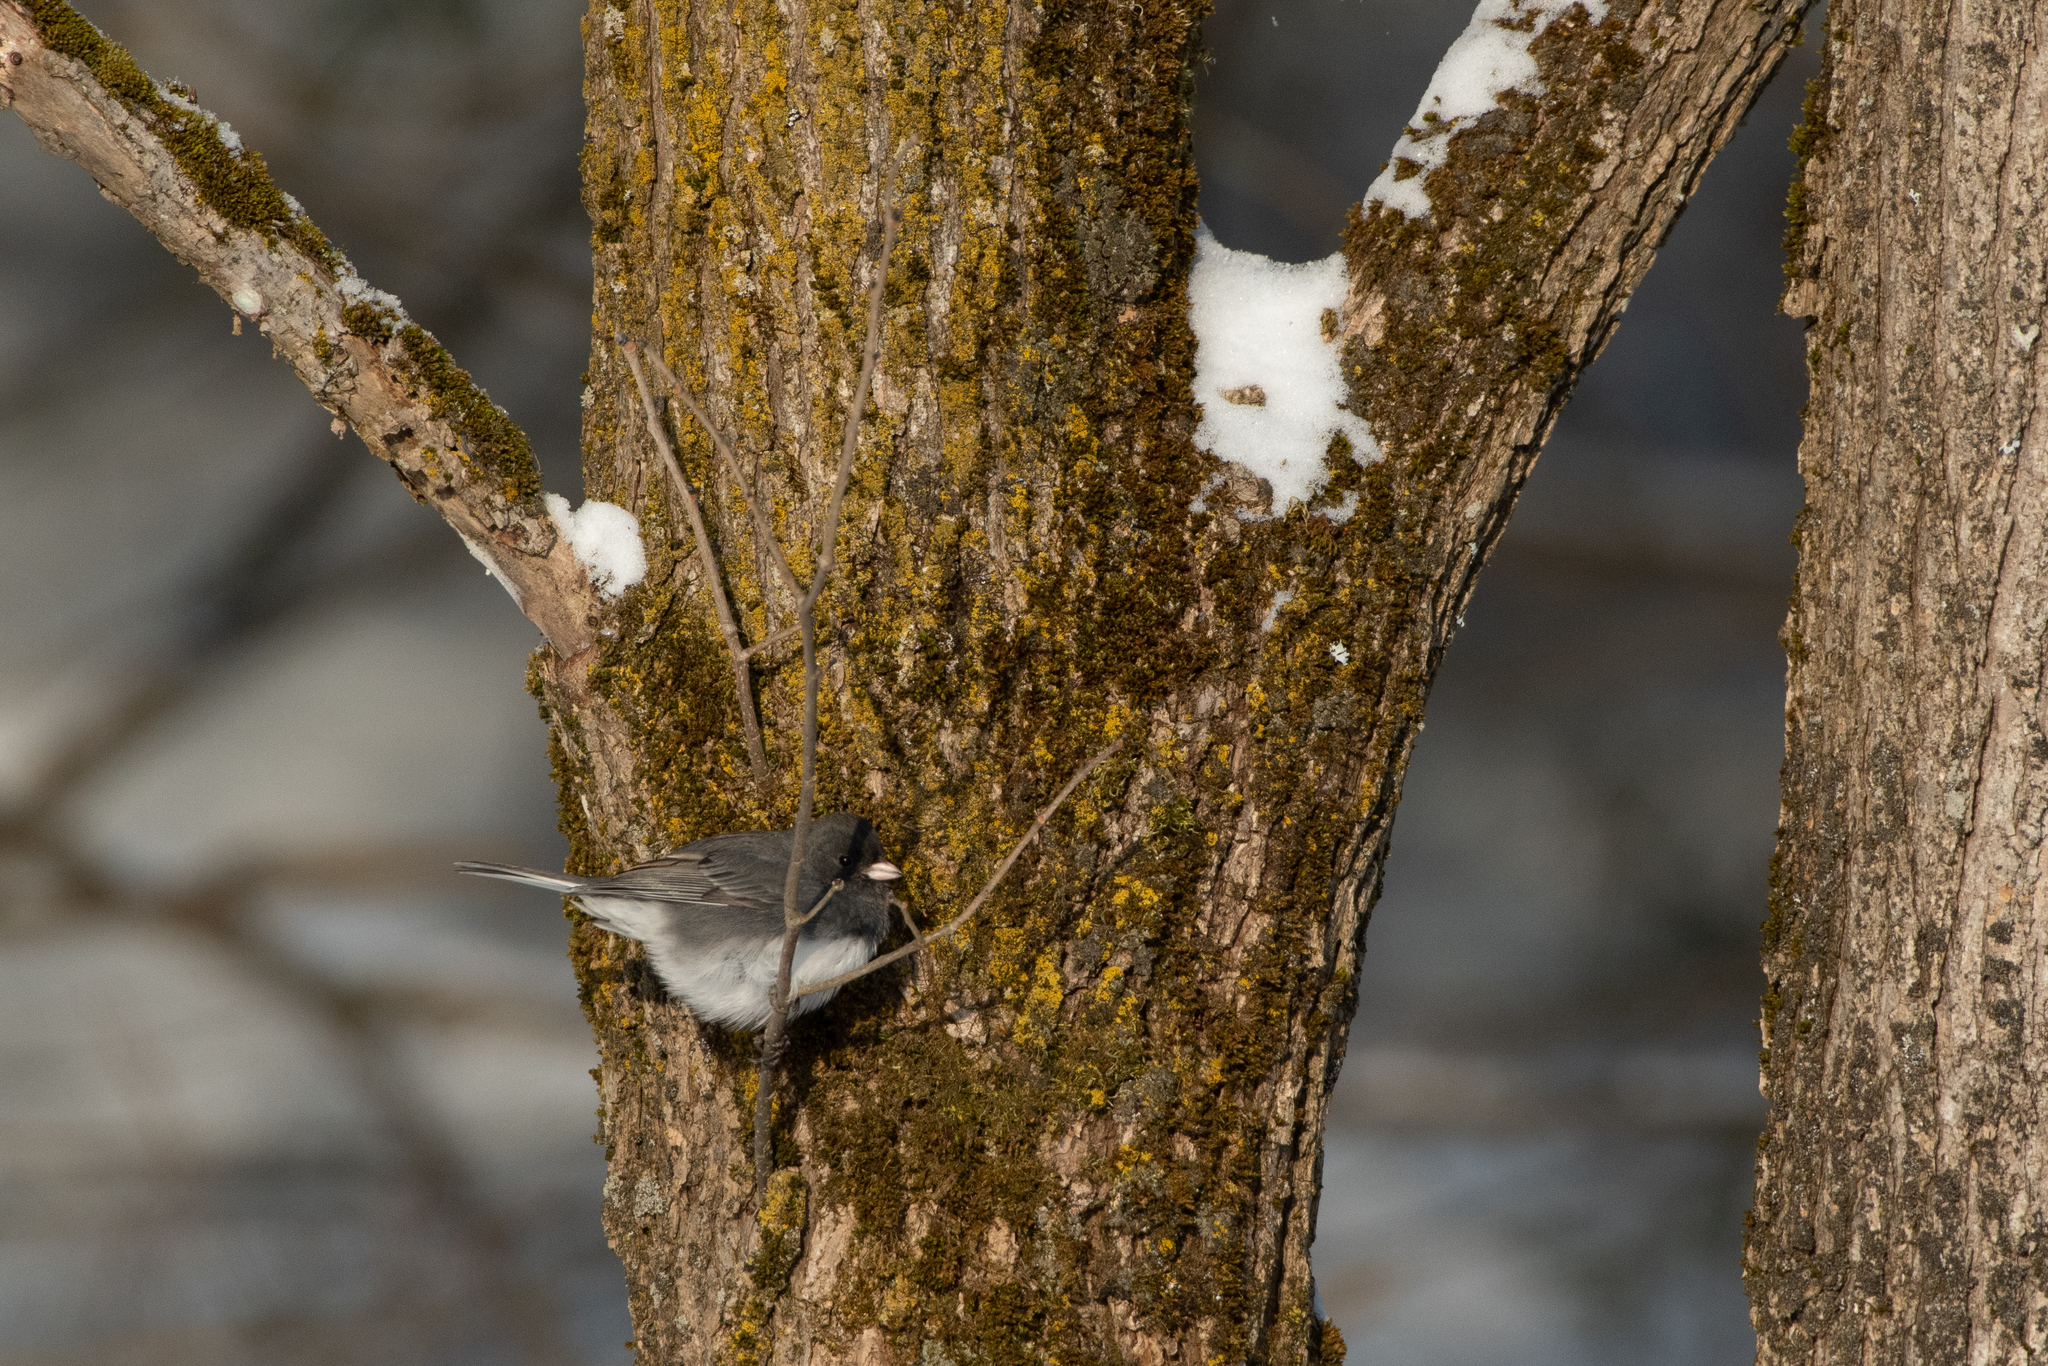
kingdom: Animalia
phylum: Chordata
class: Aves
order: Passeriformes
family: Passerellidae
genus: Junco
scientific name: Junco hyemalis
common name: Dark-eyed junco
